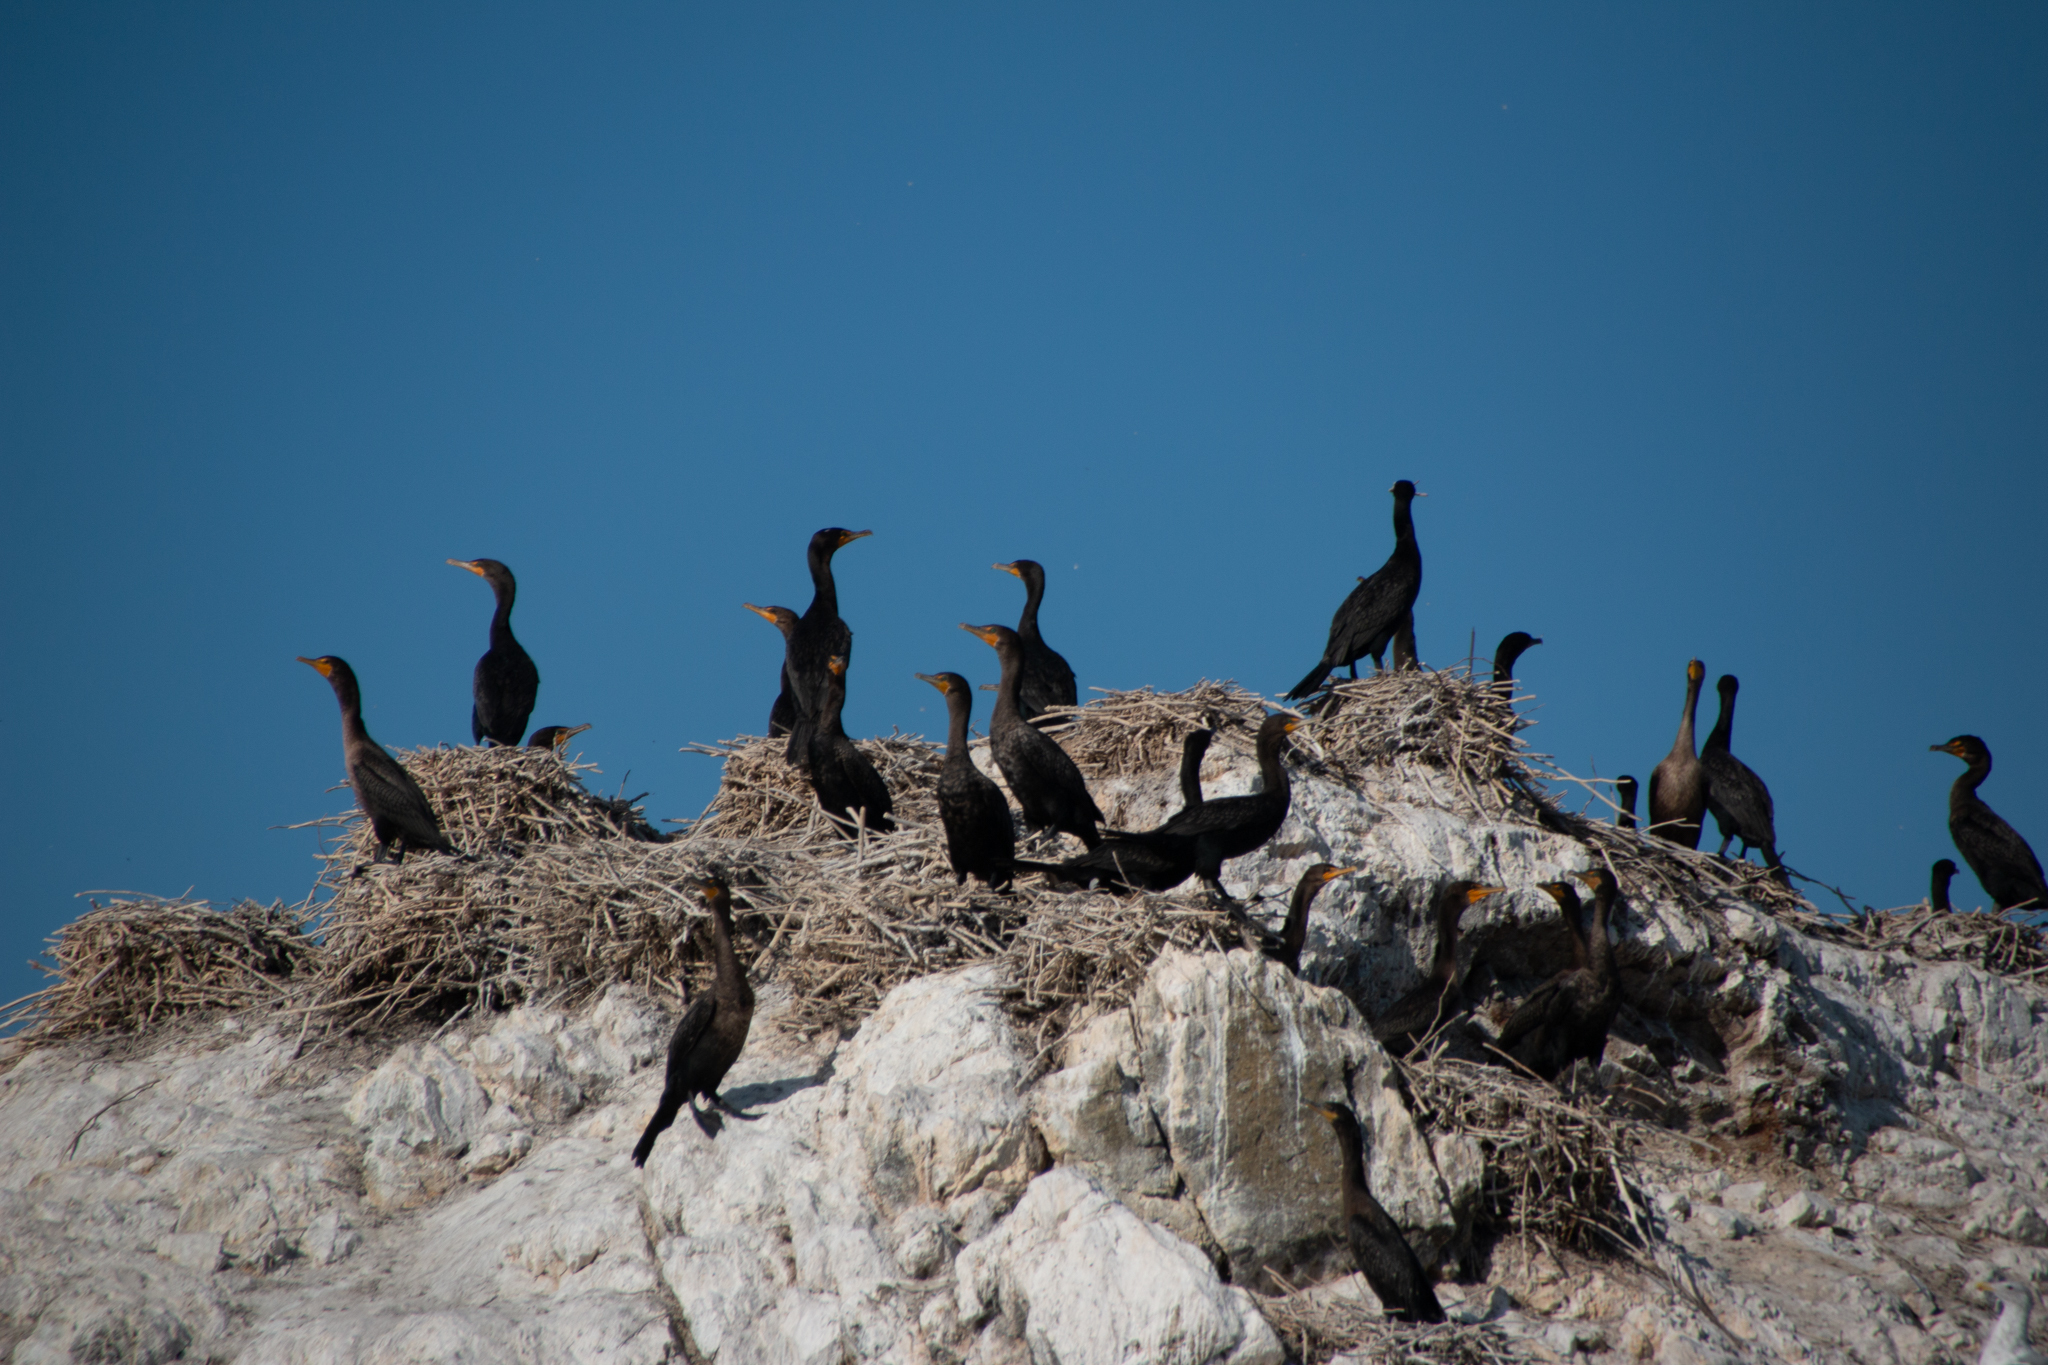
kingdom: Animalia
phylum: Chordata
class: Aves
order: Suliformes
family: Phalacrocoracidae
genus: Phalacrocorax
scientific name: Phalacrocorax auritus
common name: Double-crested cormorant
